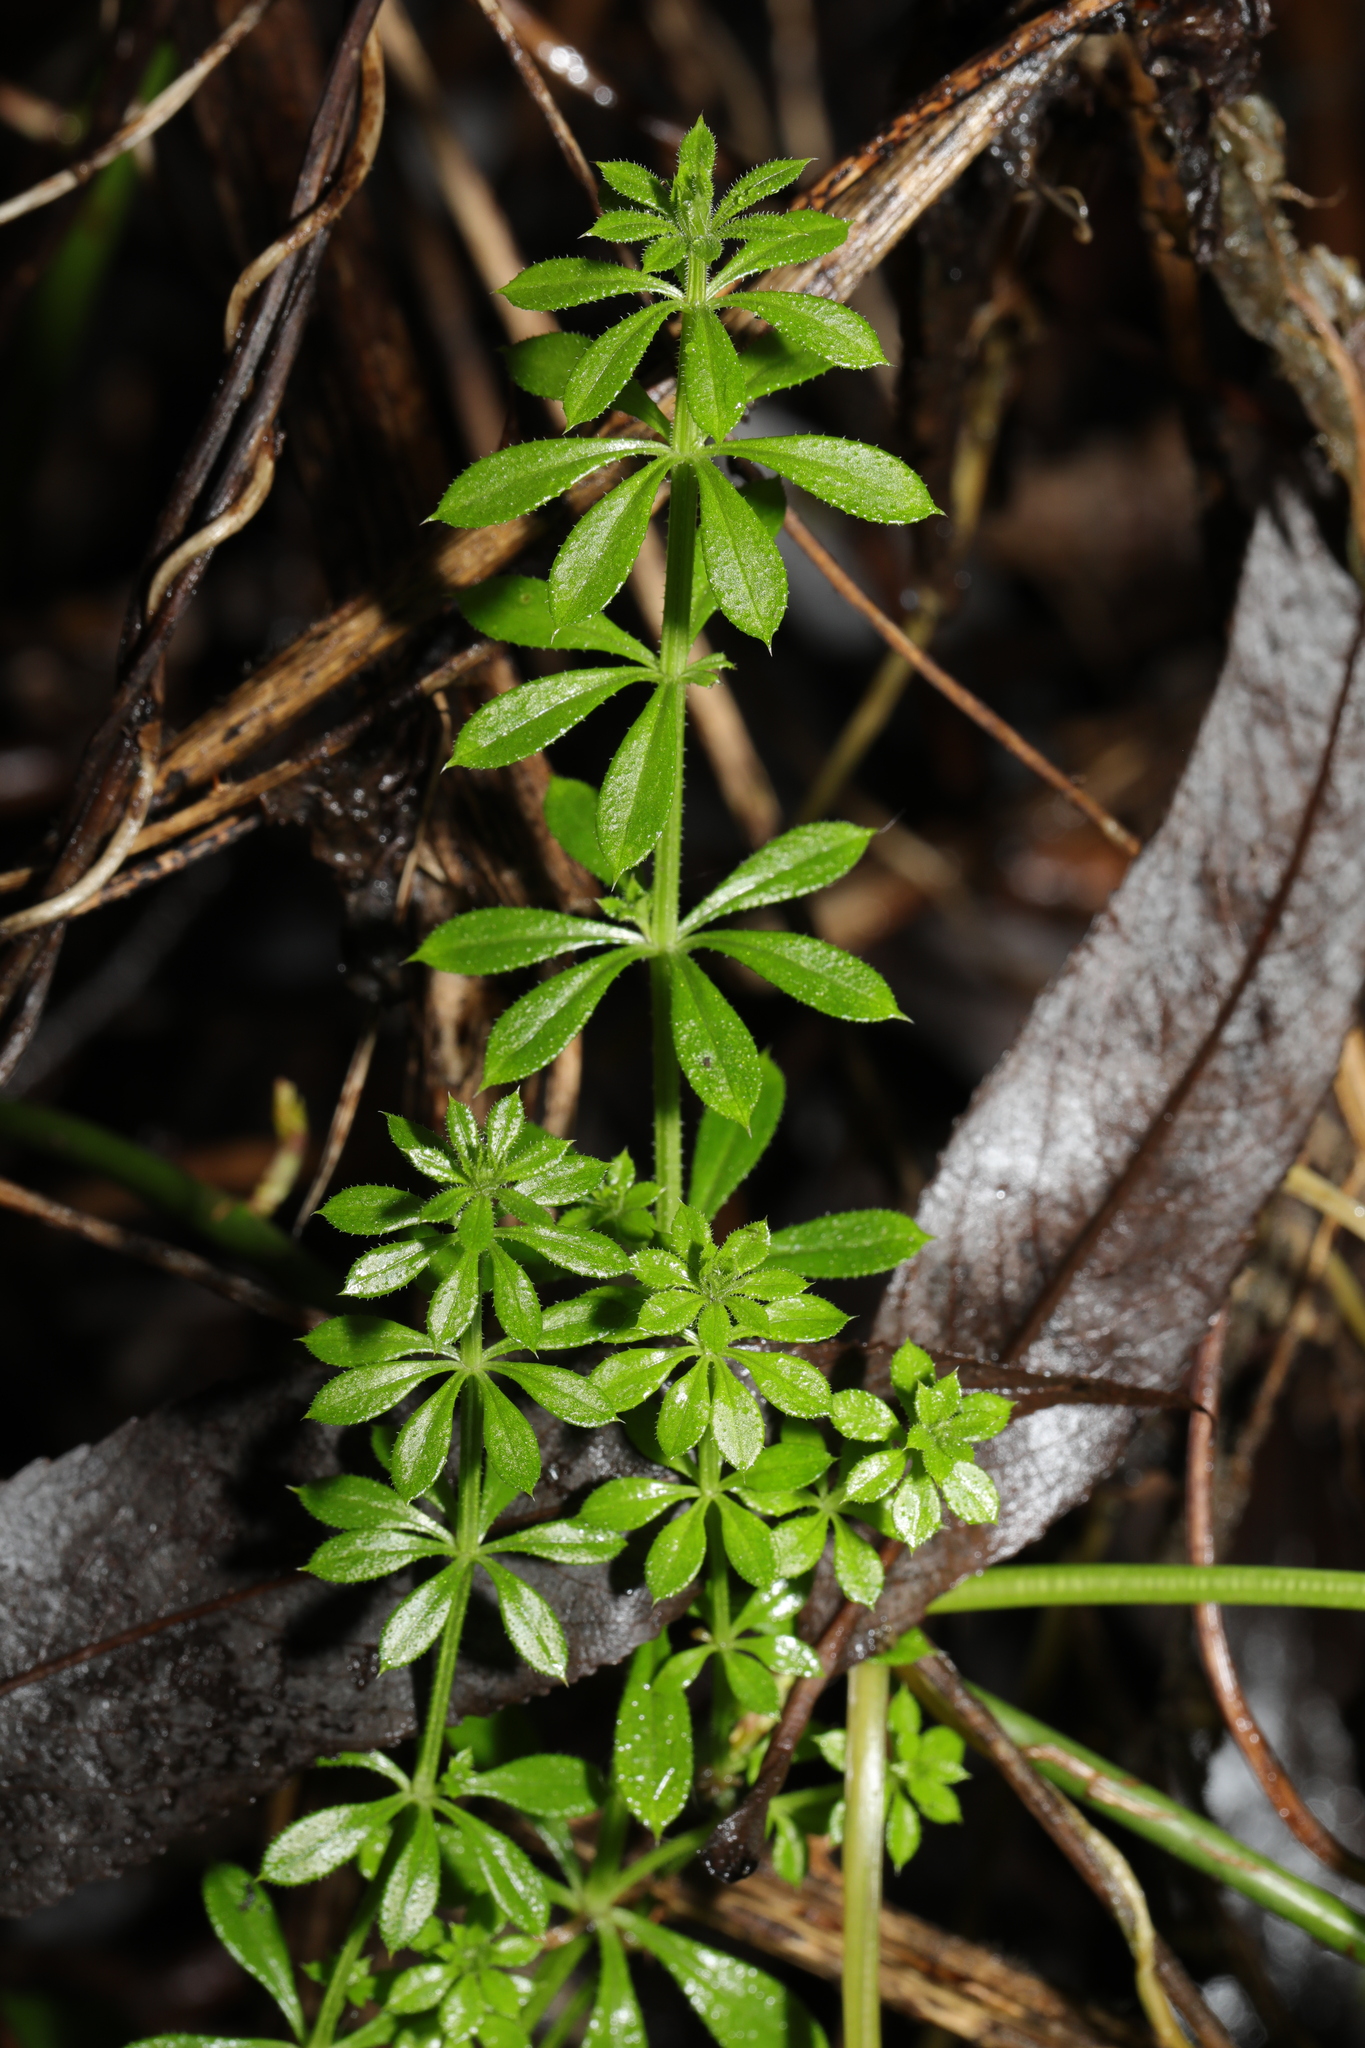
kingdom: Plantae
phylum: Tracheophyta
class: Magnoliopsida
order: Gentianales
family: Rubiaceae
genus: Galium
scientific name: Galium aparine
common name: Cleavers
